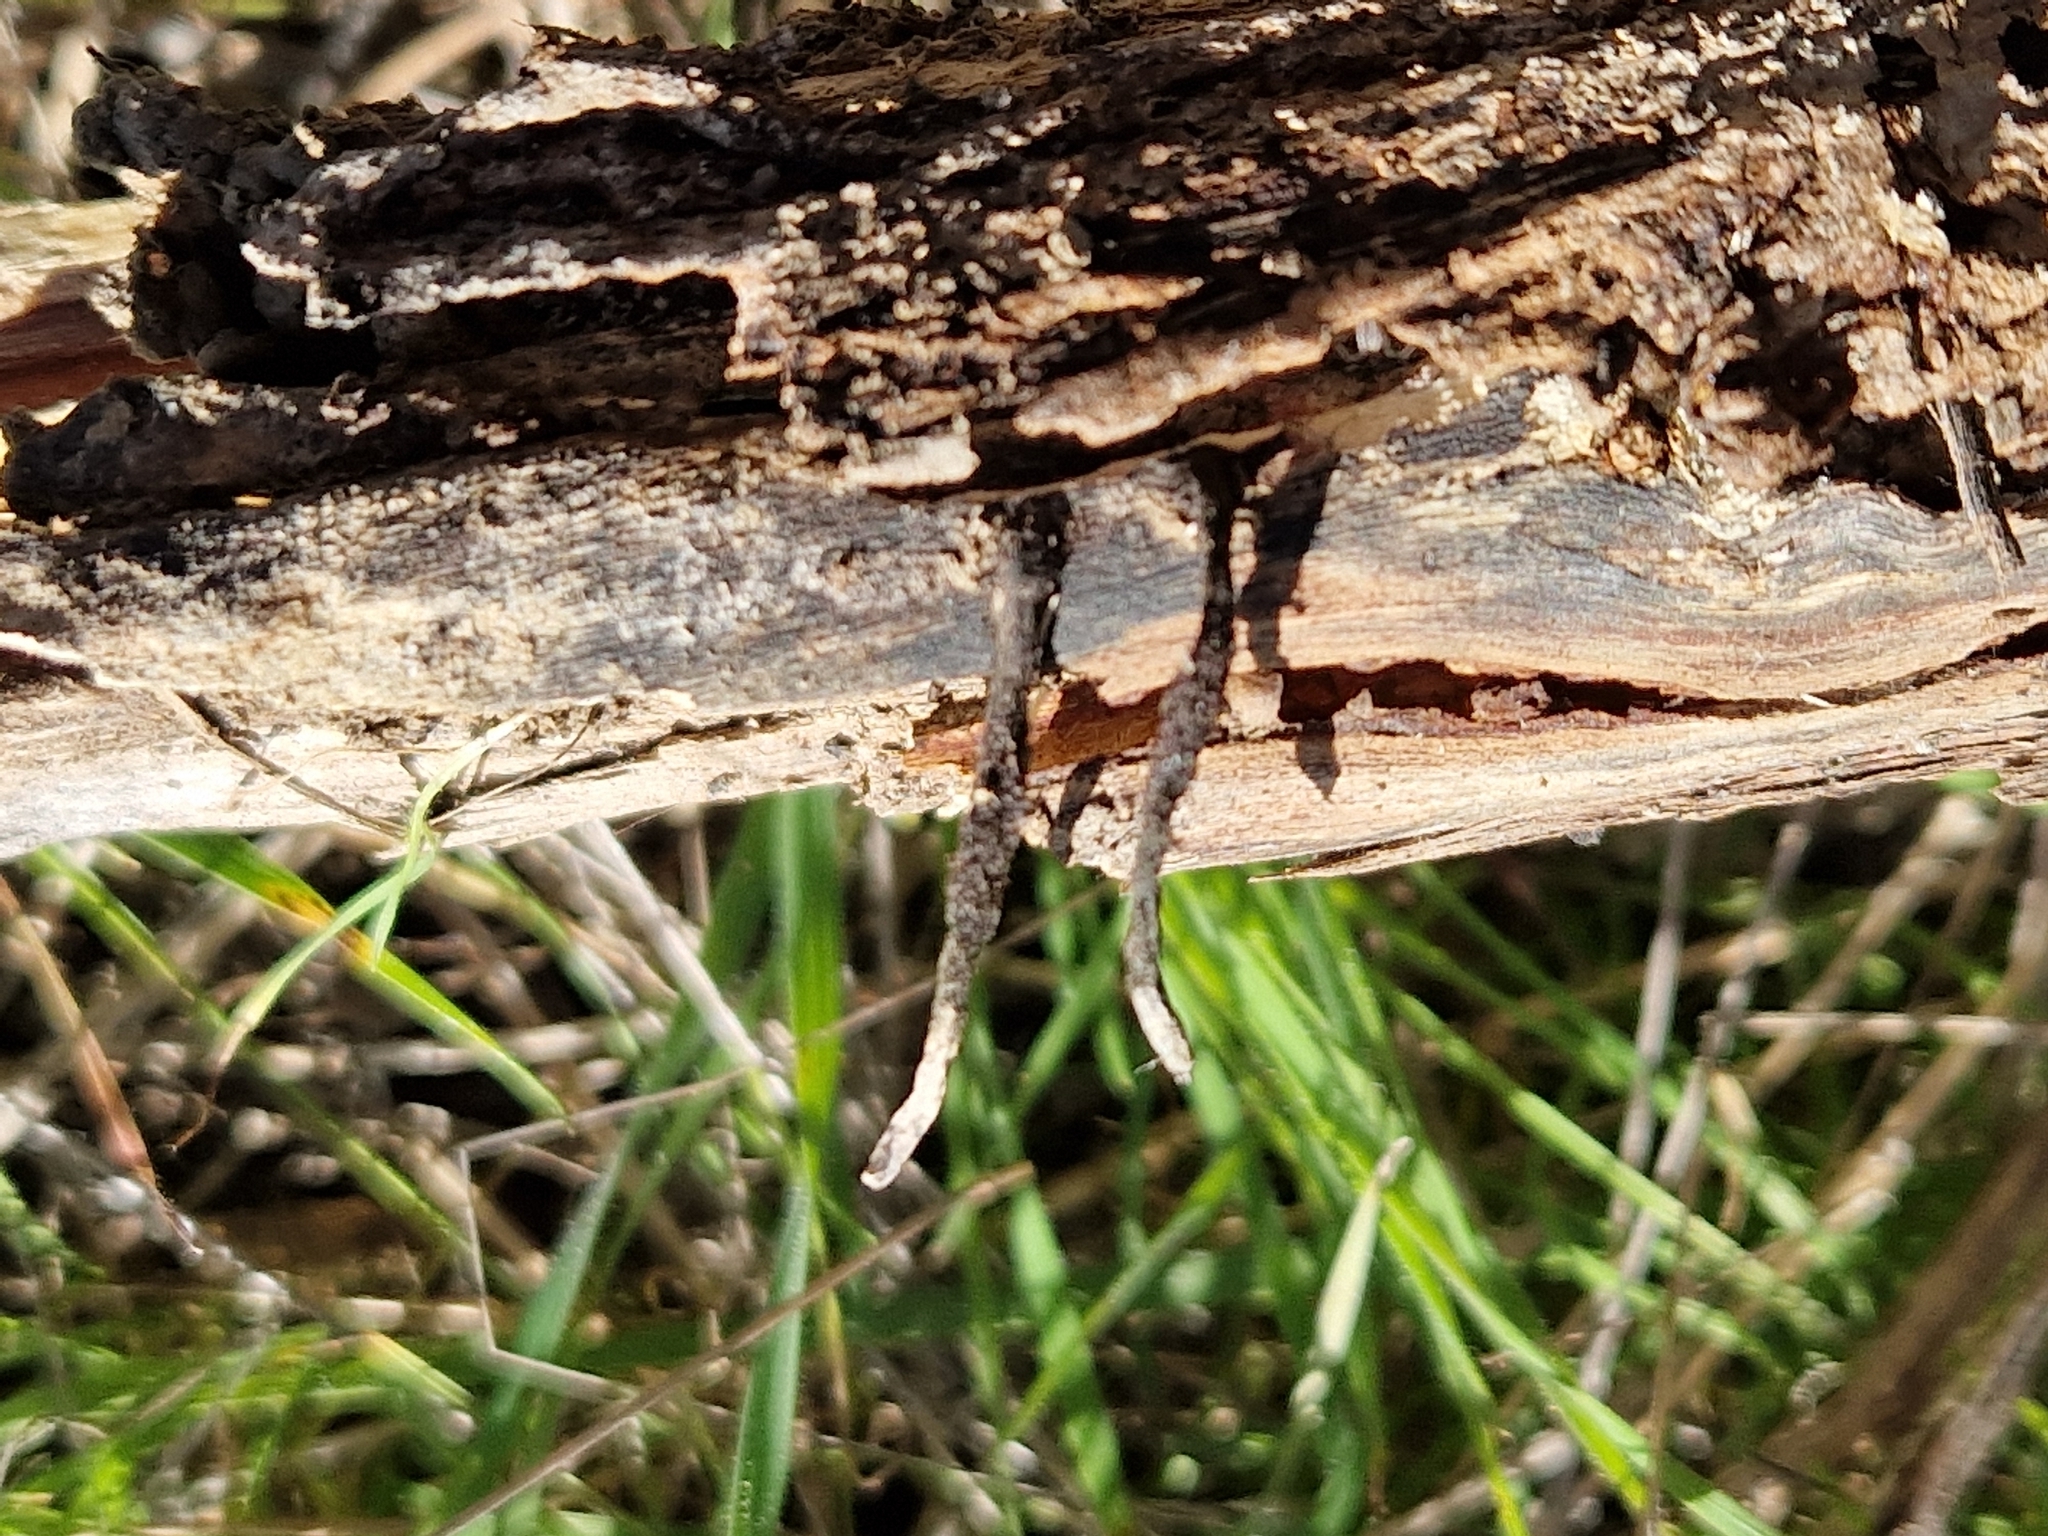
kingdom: Fungi
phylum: Ascomycota
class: Sordariomycetes
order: Xylariales
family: Xylariaceae
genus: Xylaria
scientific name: Xylaria
